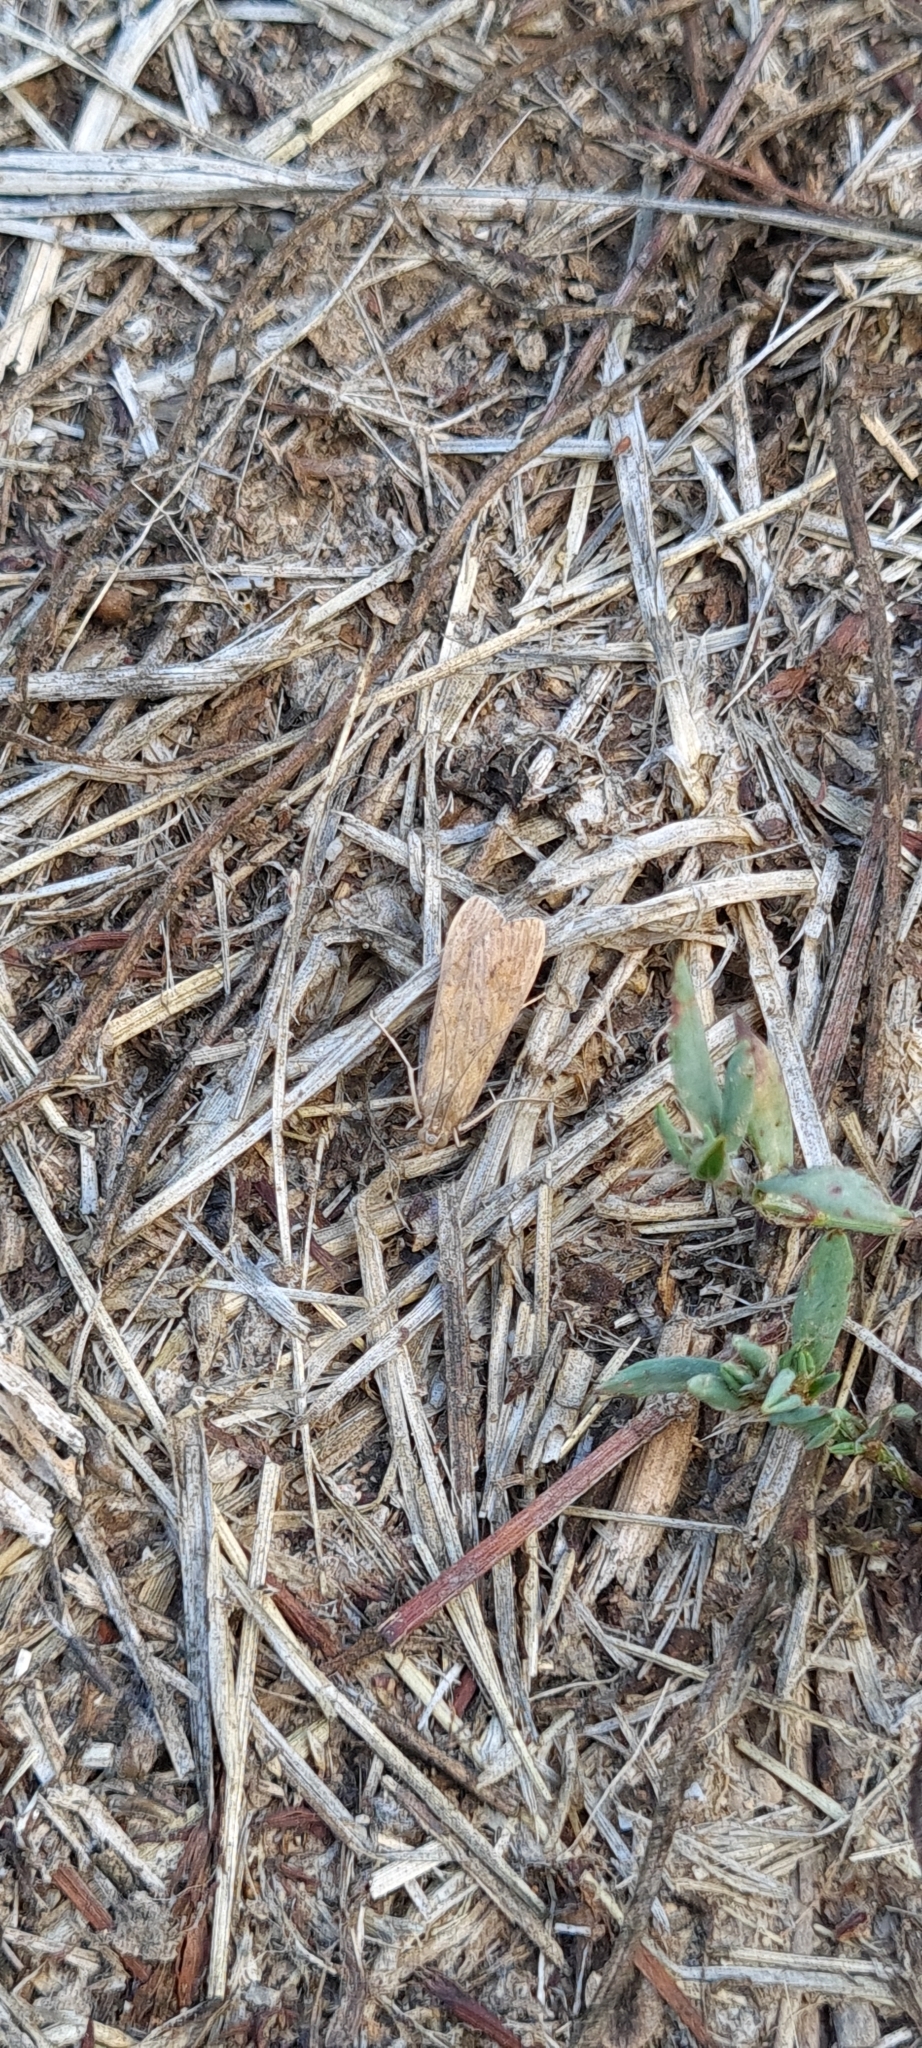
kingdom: Animalia
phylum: Arthropoda
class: Insecta
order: Lepidoptera
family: Crambidae
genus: Nomophila
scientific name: Nomophila noctuella
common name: Rush veneer
